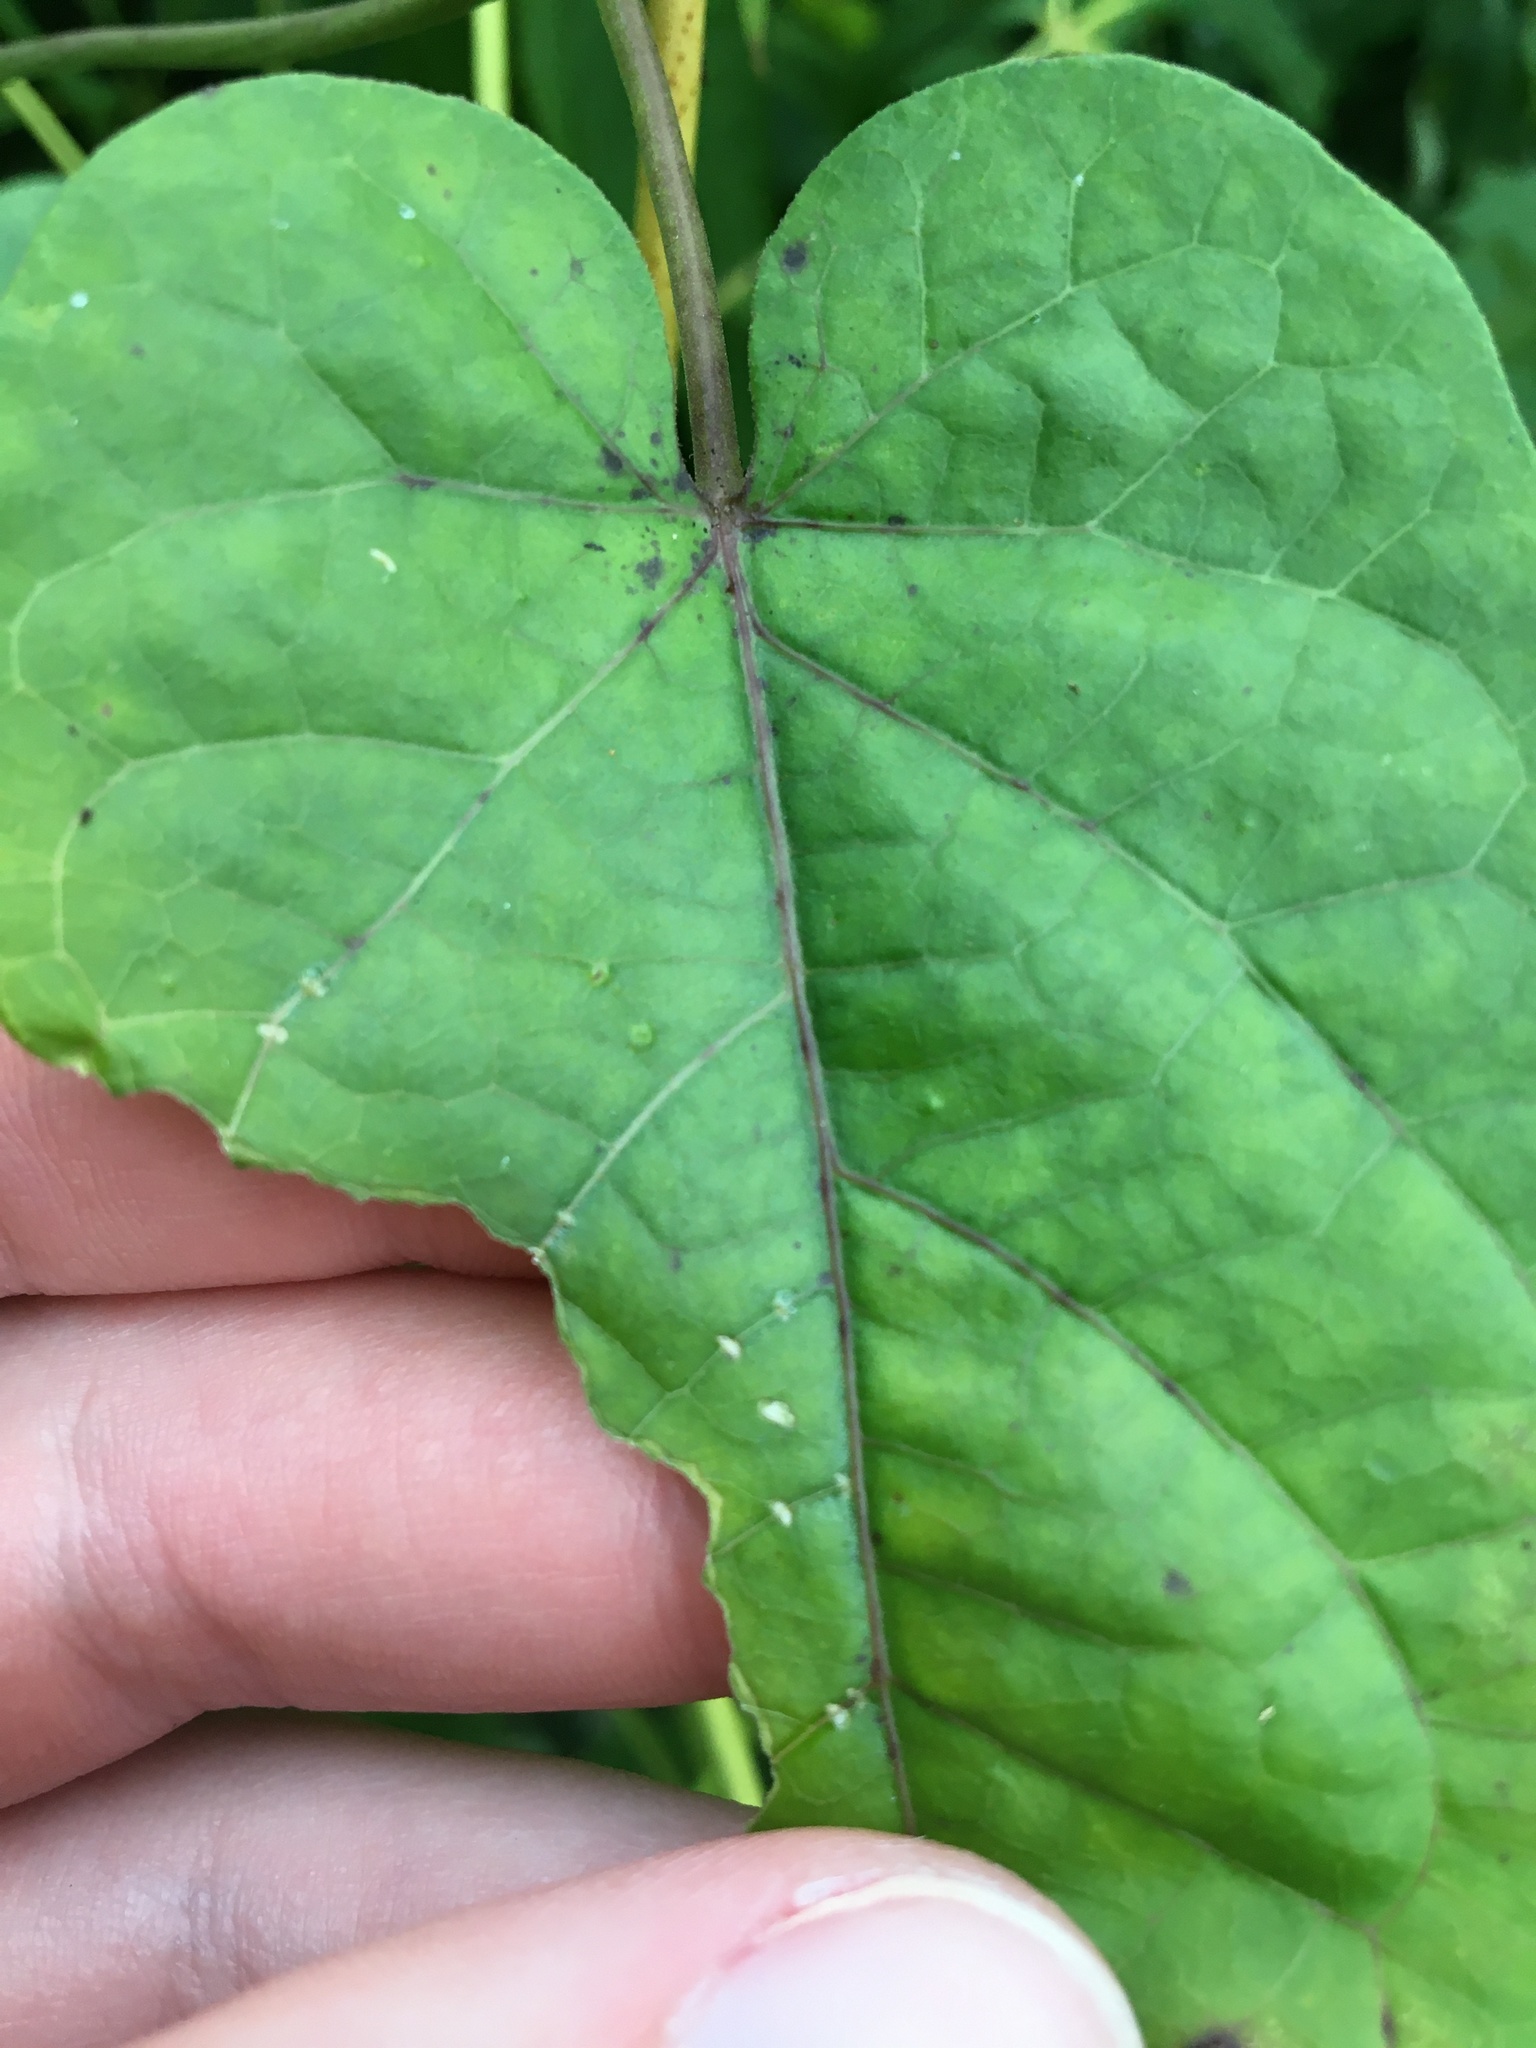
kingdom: Plantae
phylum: Tracheophyta
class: Magnoliopsida
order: Gentianales
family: Apocynaceae
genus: Gonolobus
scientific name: Gonolobus suberosus
